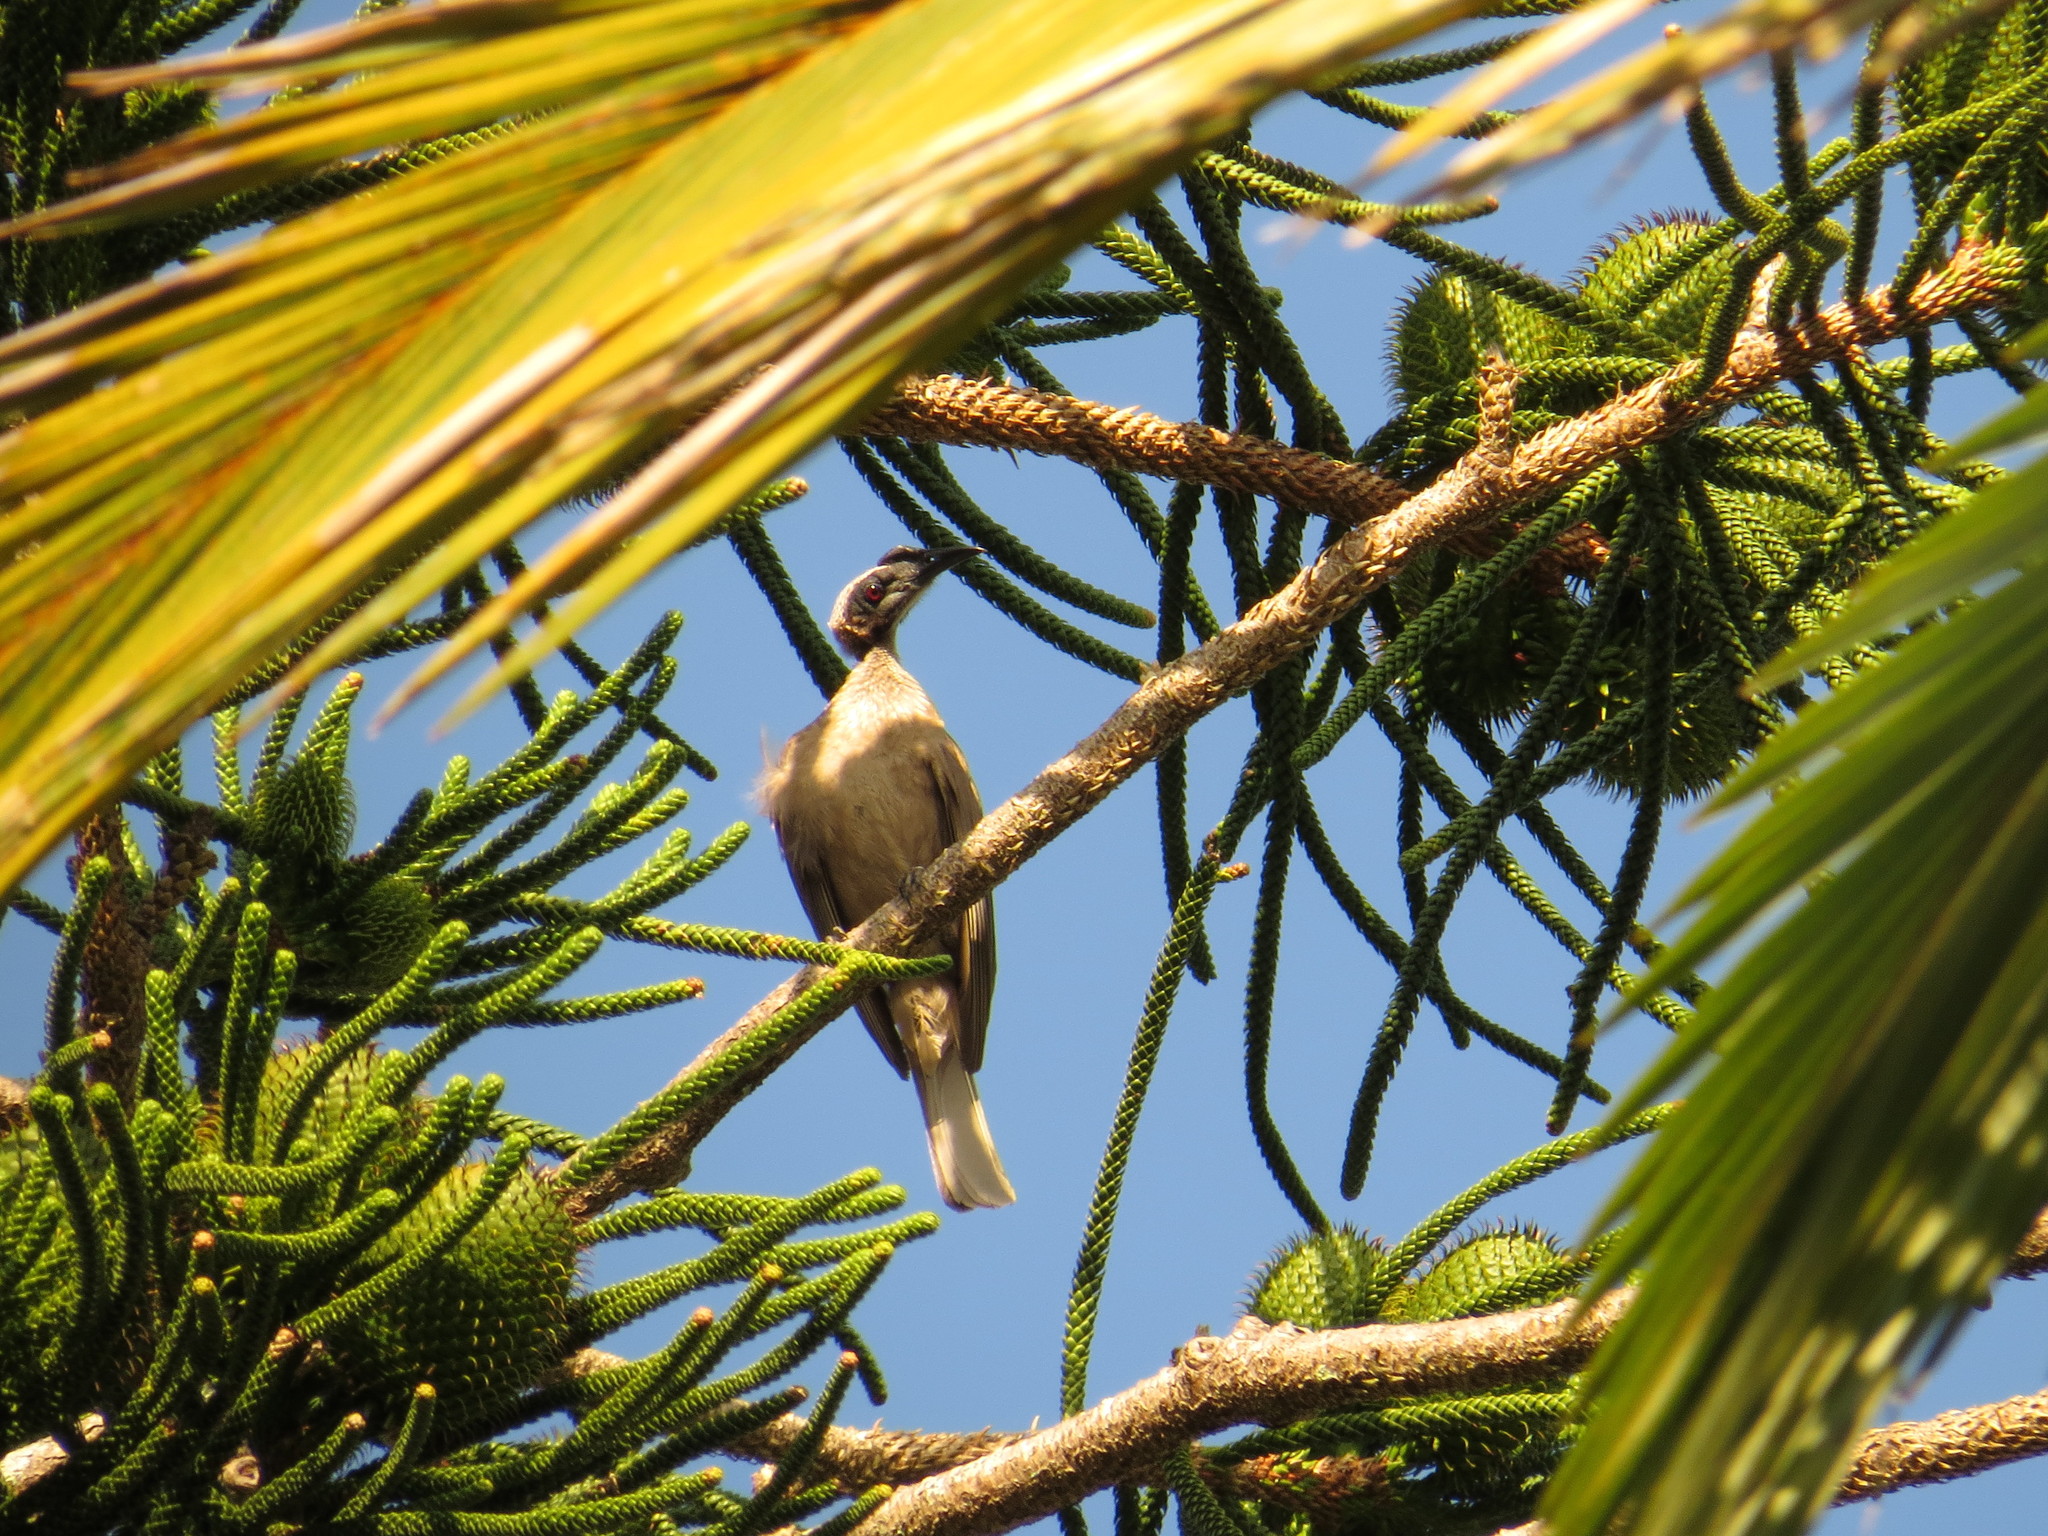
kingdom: Animalia
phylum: Chordata
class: Aves
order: Passeriformes
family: Meliphagidae
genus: Philemon
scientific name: Philemon buceroides
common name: Helmeted friarbird
